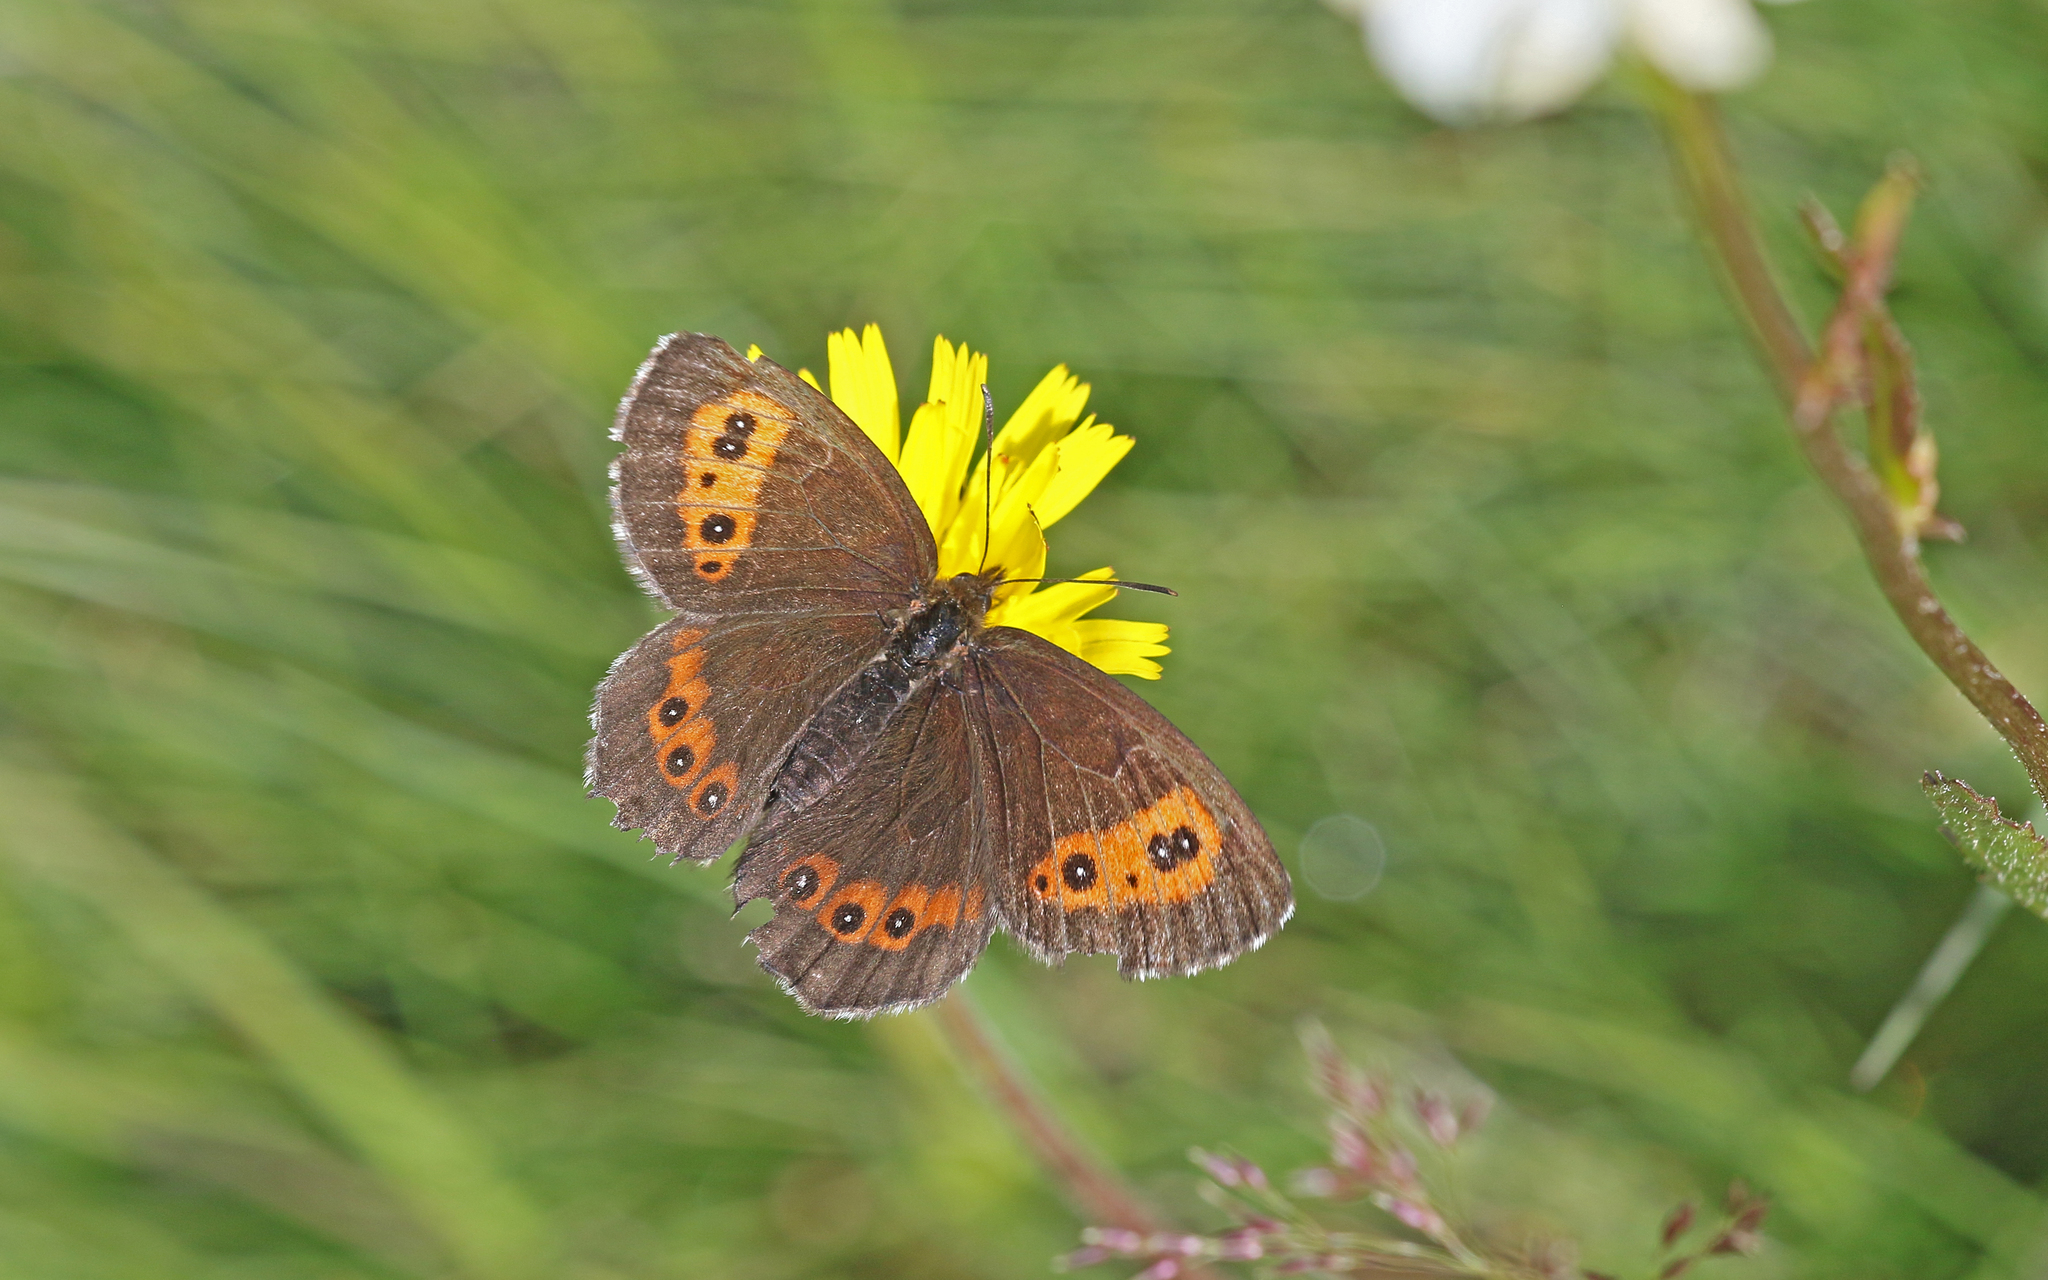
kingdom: Animalia
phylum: Arthropoda
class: Insecta
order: Lepidoptera
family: Nymphalidae
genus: Erebia
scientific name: Erebia ligea
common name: Arran brown
